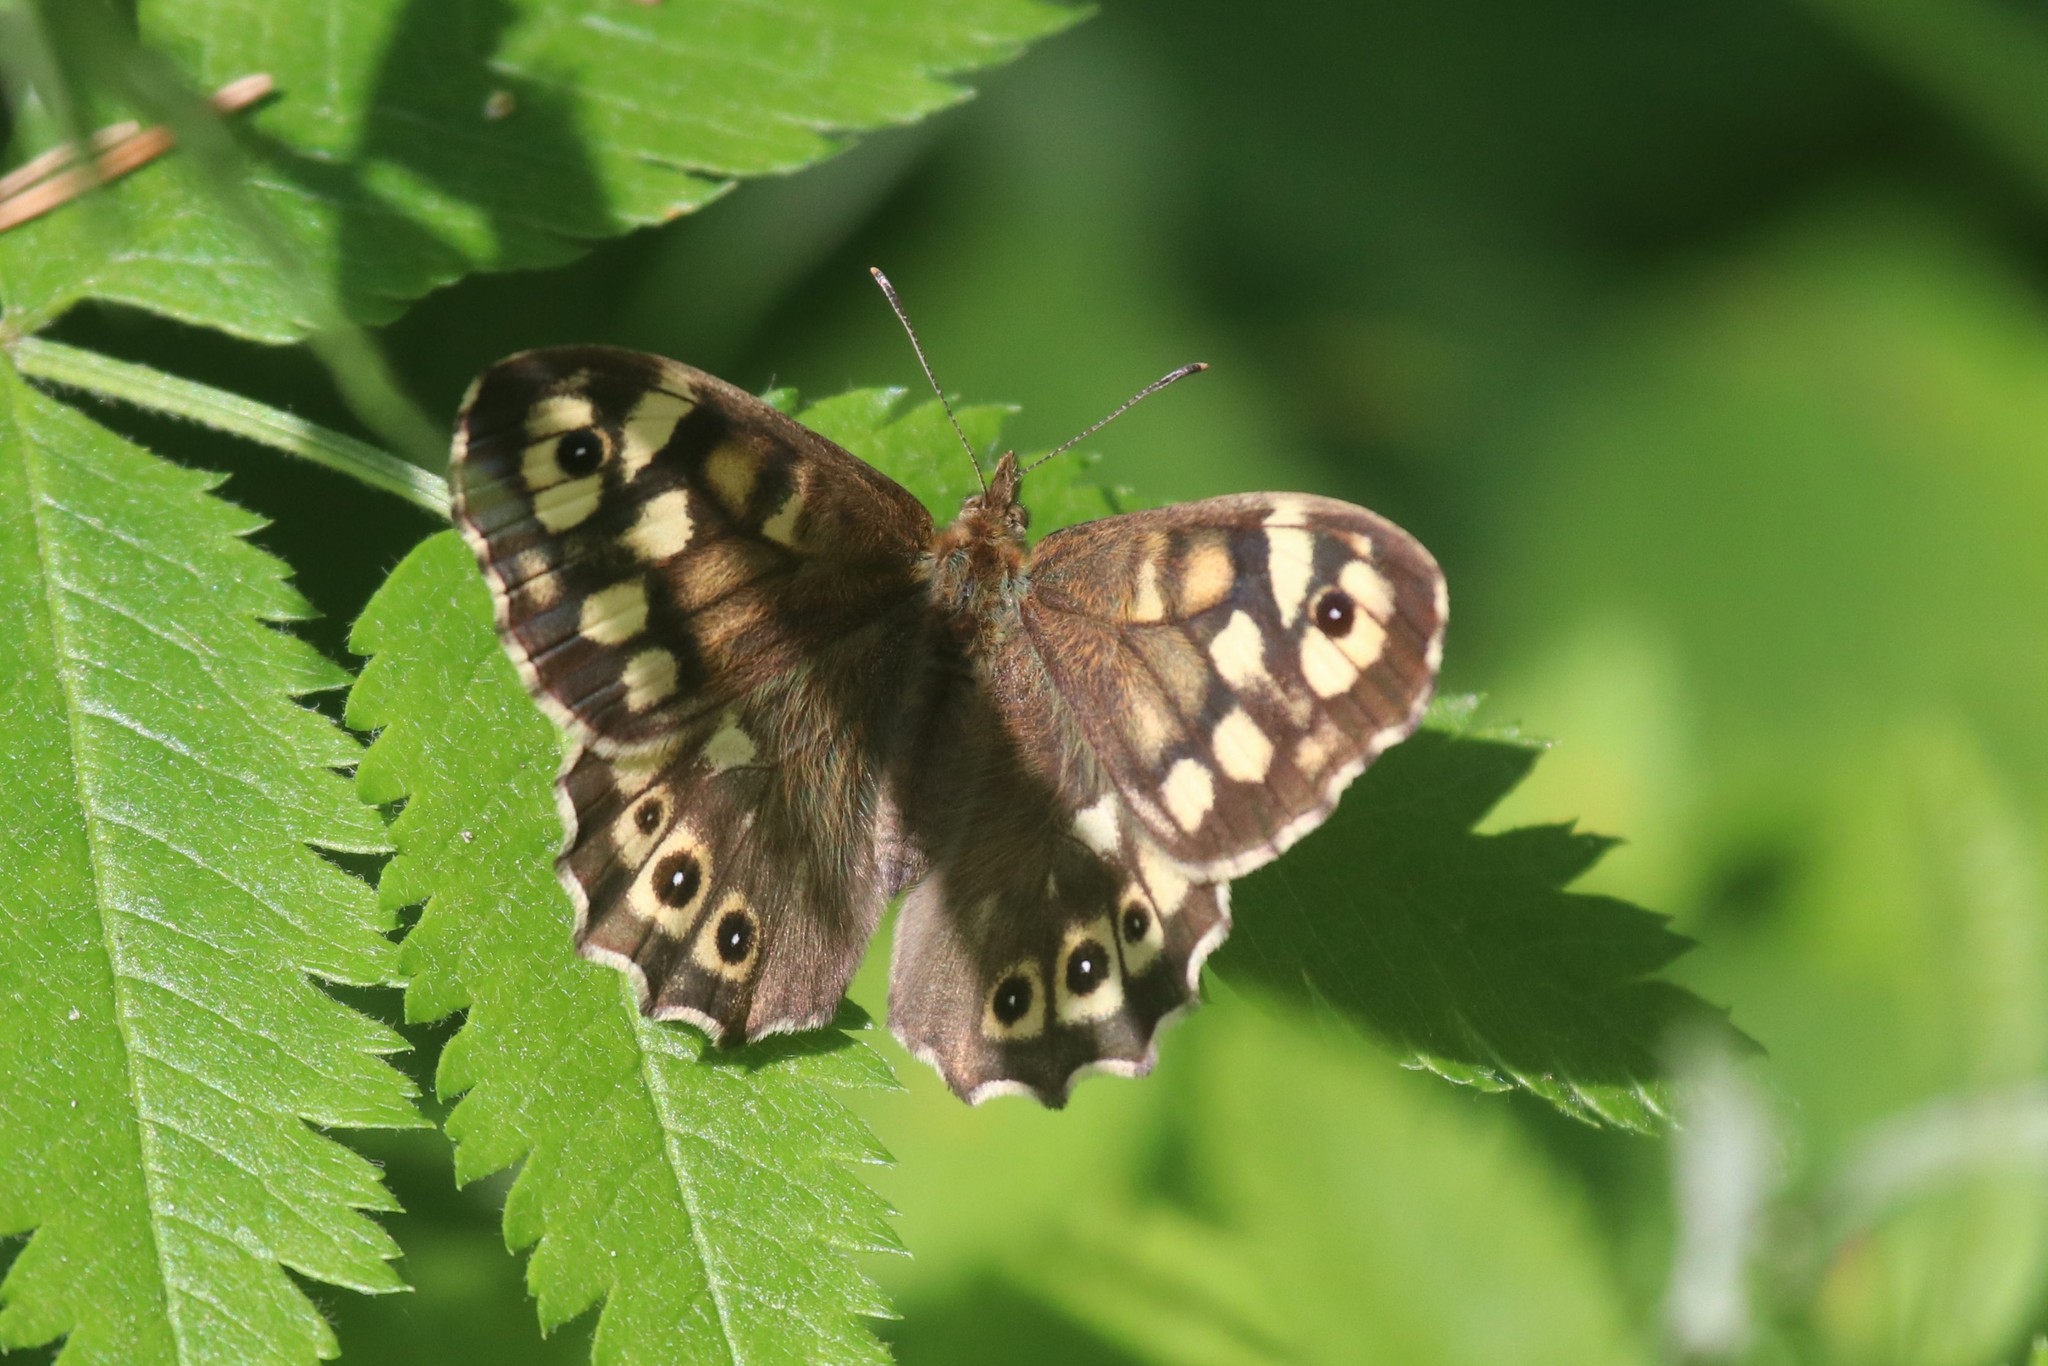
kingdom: Animalia
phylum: Arthropoda
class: Insecta
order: Lepidoptera
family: Nymphalidae
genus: Pararge
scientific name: Pararge aegeria
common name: Speckled wood
